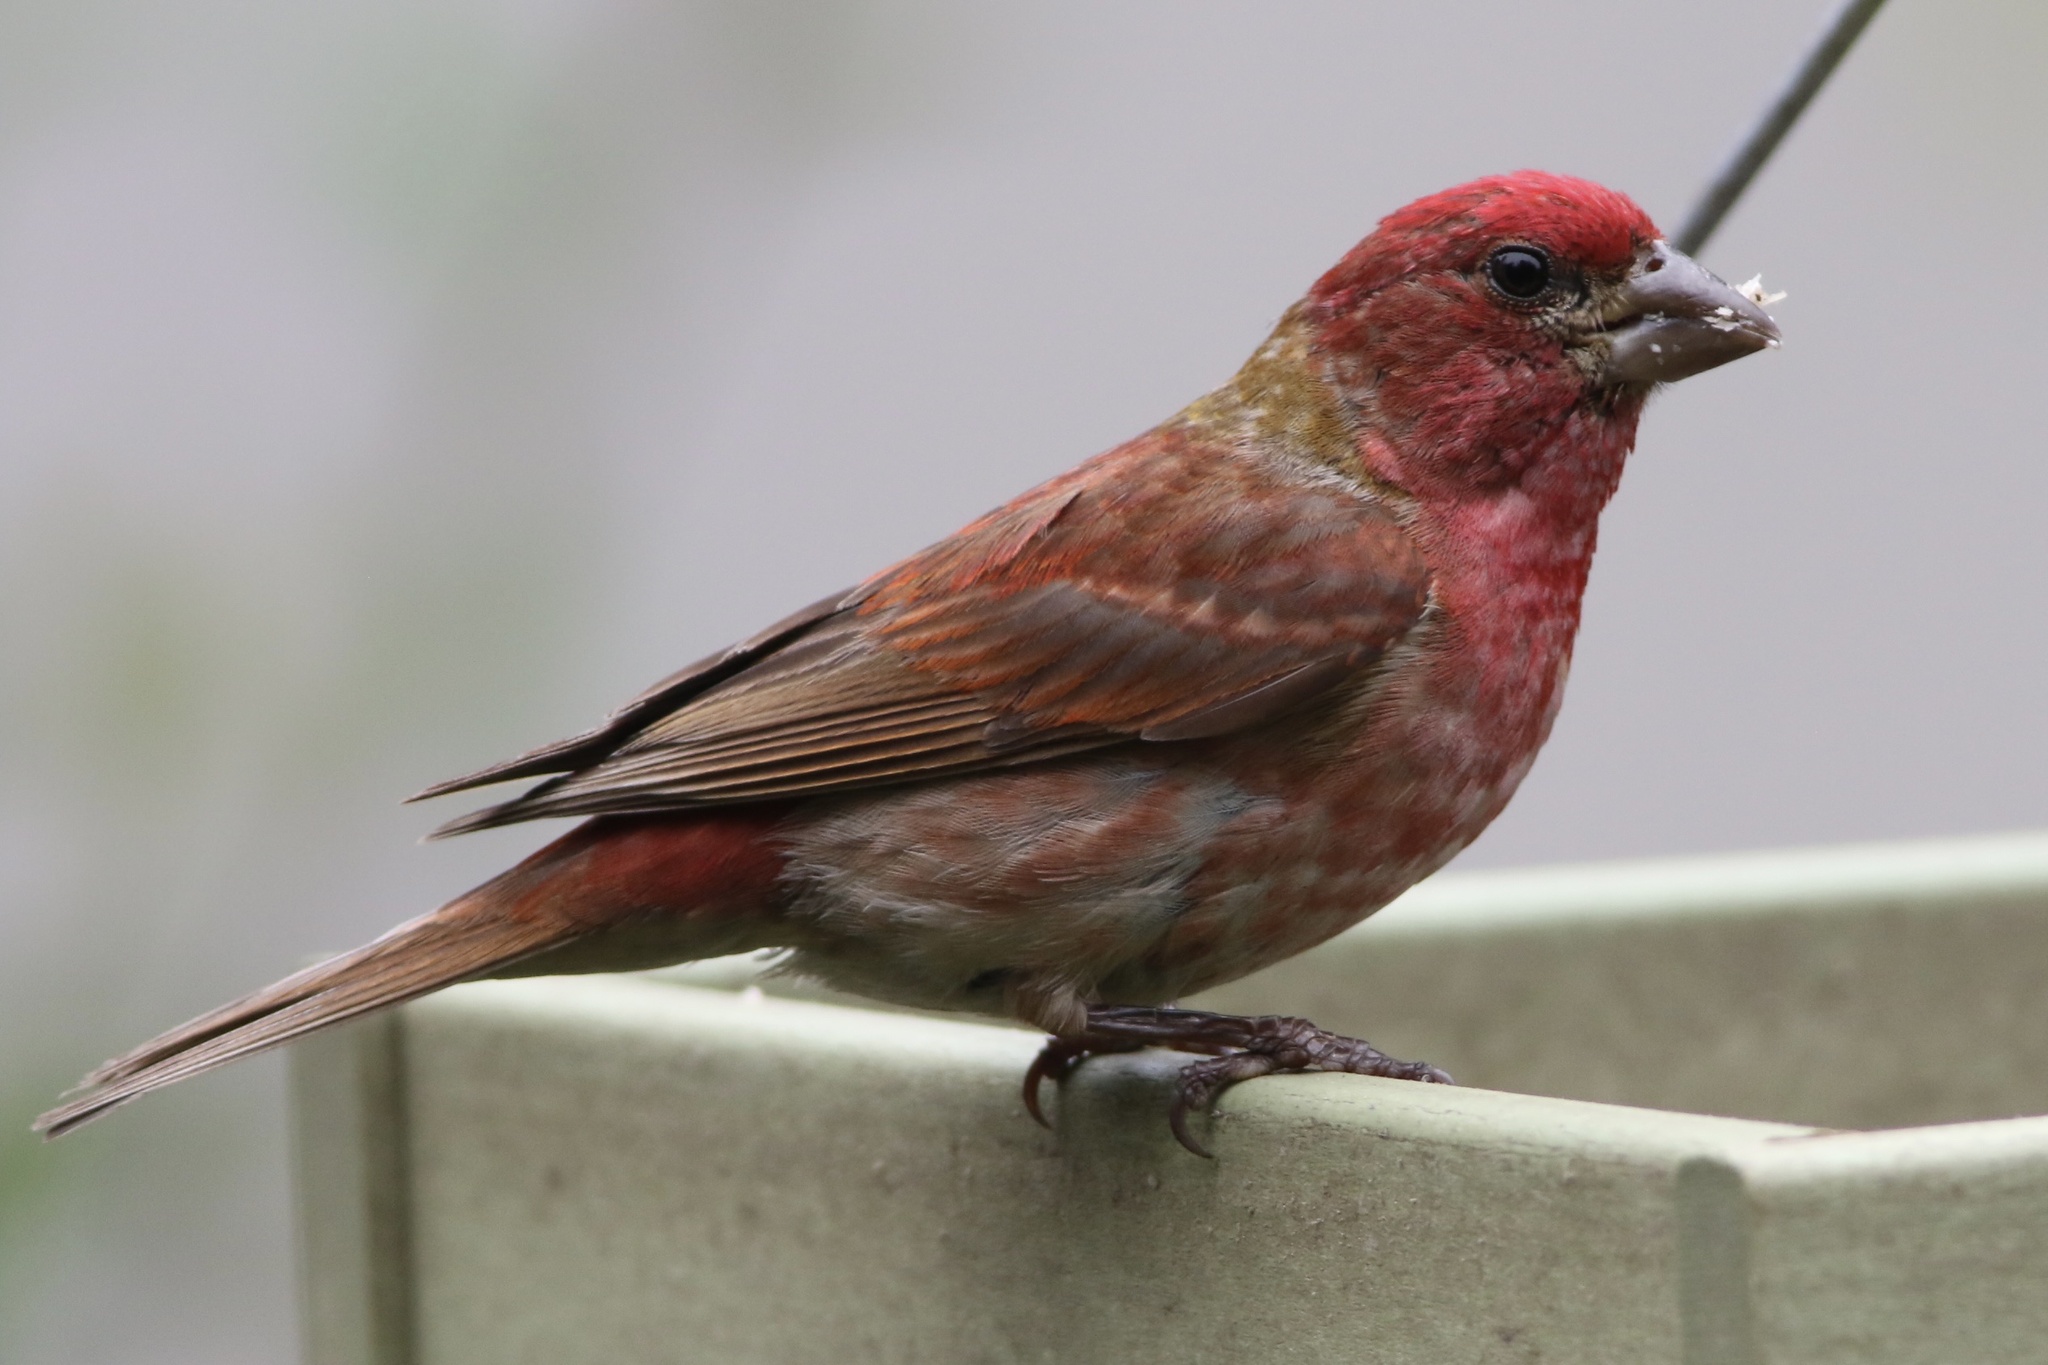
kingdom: Animalia
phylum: Chordata
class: Aves
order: Passeriformes
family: Fringillidae
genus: Haemorhous
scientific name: Haemorhous purpureus
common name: Purple finch
